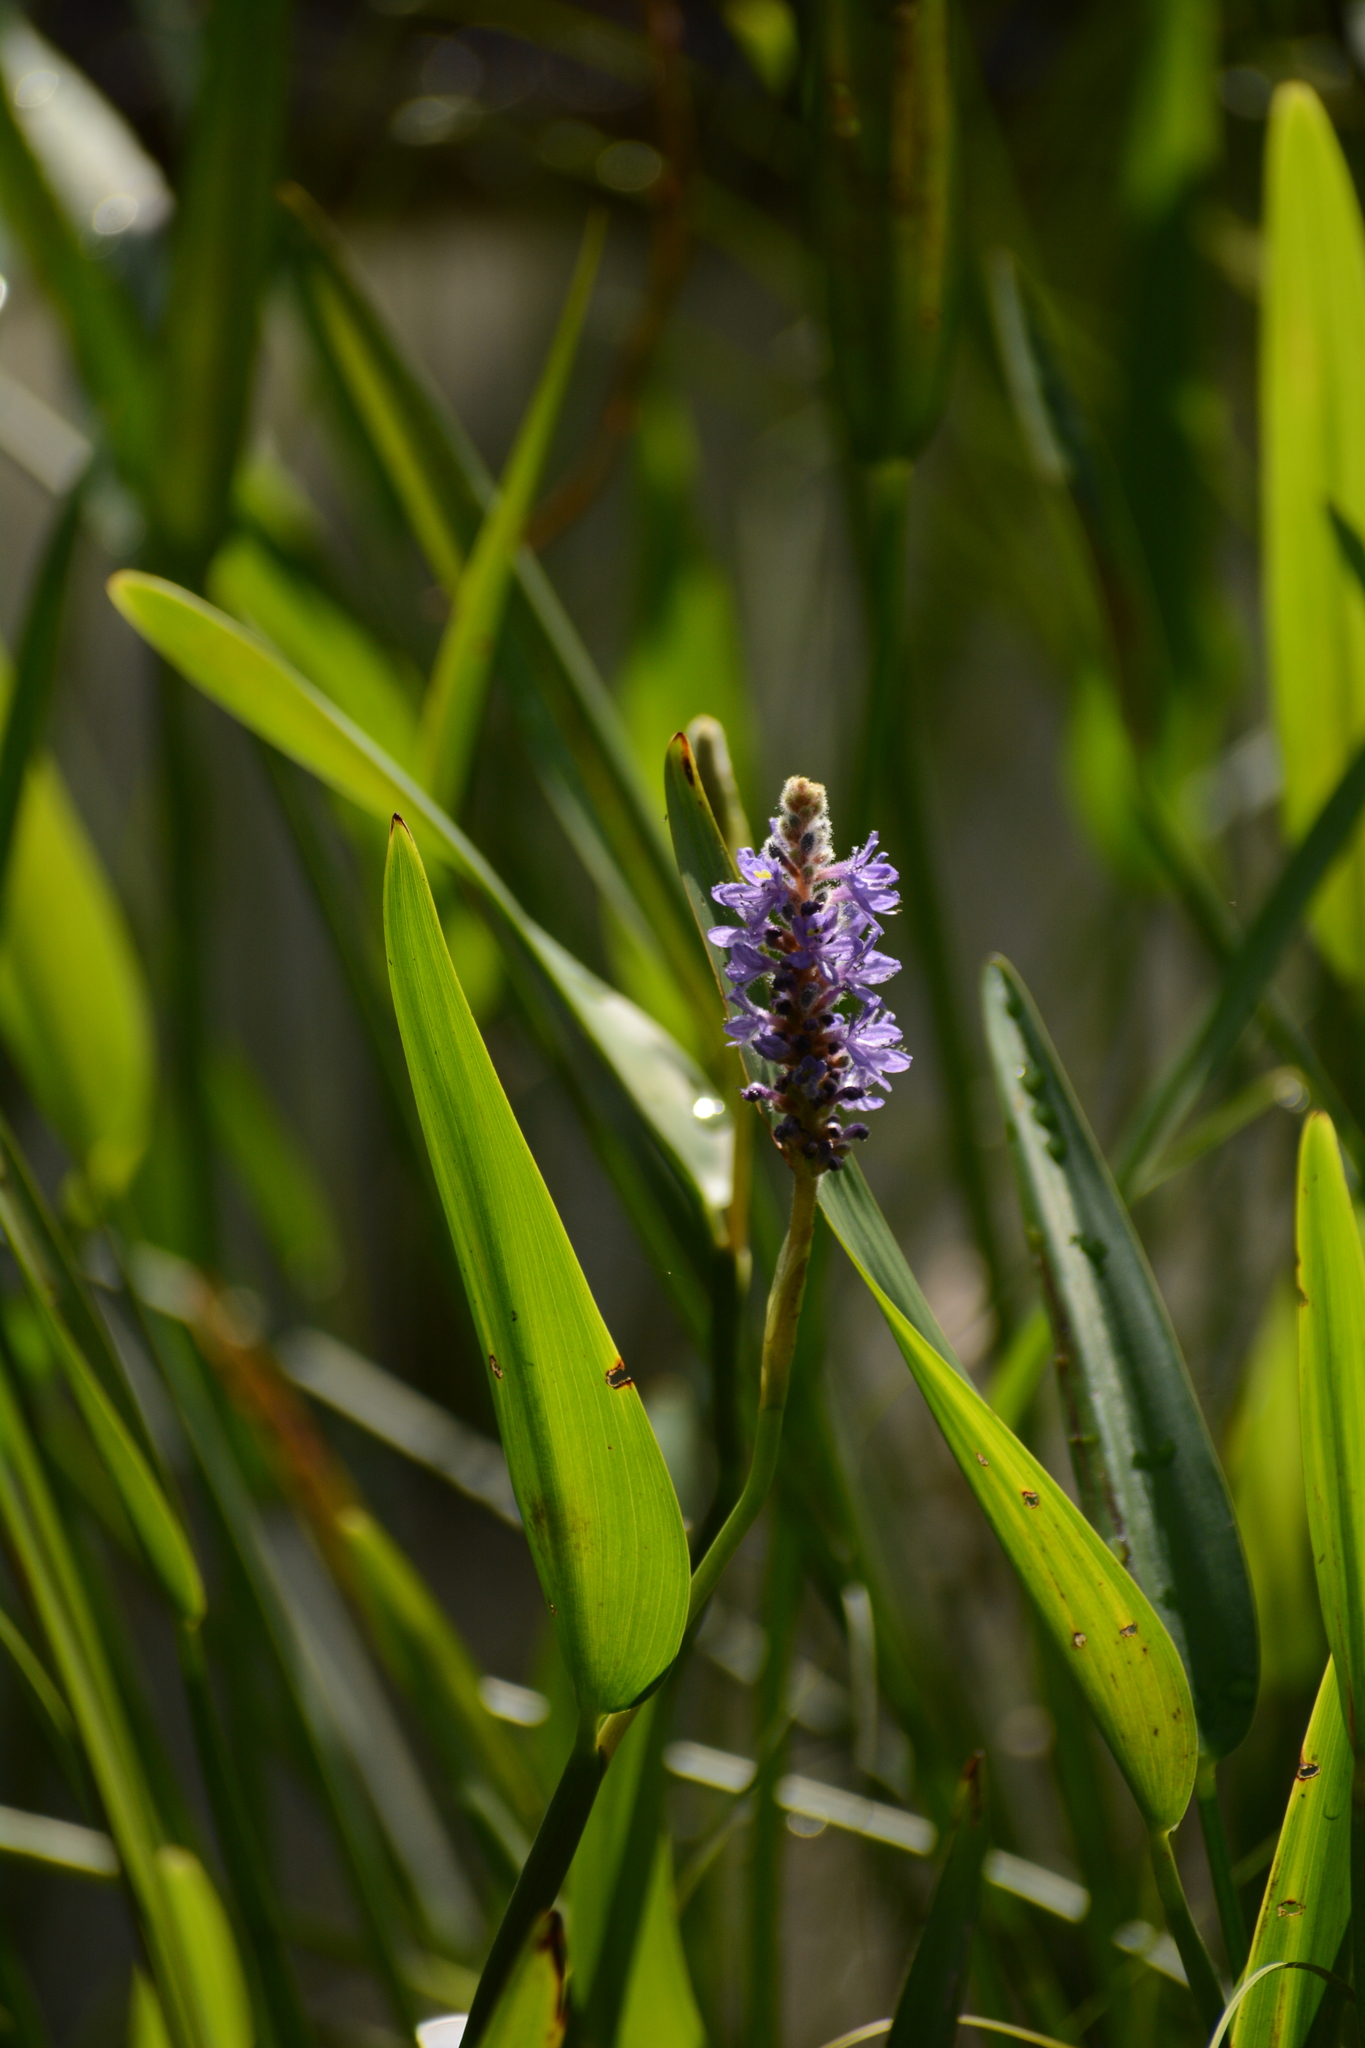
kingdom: Plantae
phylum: Tracheophyta
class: Liliopsida
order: Commelinales
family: Pontederiaceae
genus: Pontederia
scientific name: Pontederia cordata
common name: Pickerelweed
